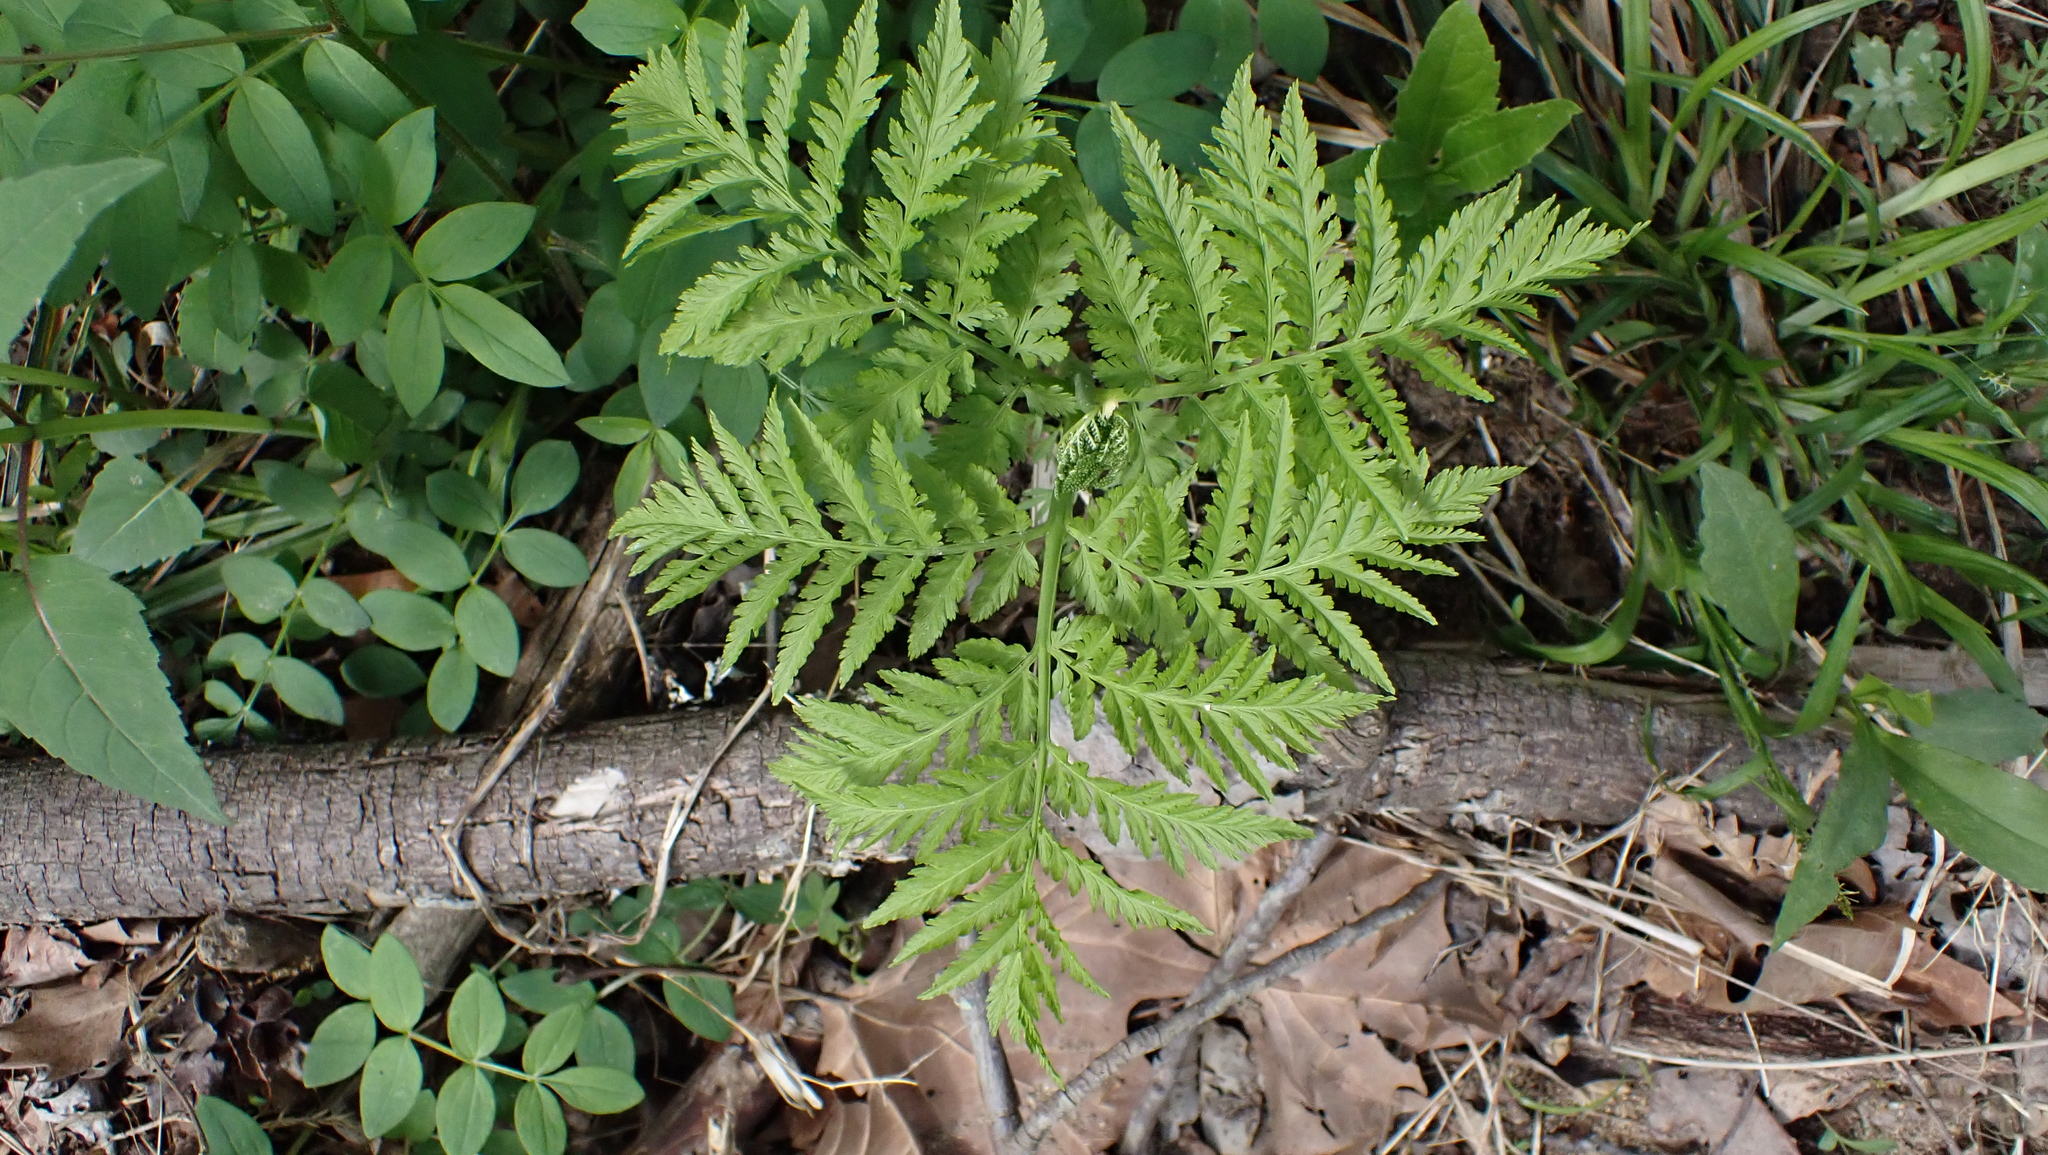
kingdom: Plantae
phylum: Tracheophyta
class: Polypodiopsida
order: Ophioglossales
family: Ophioglossaceae
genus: Botrypus
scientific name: Botrypus virginianus
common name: Common grapefern
